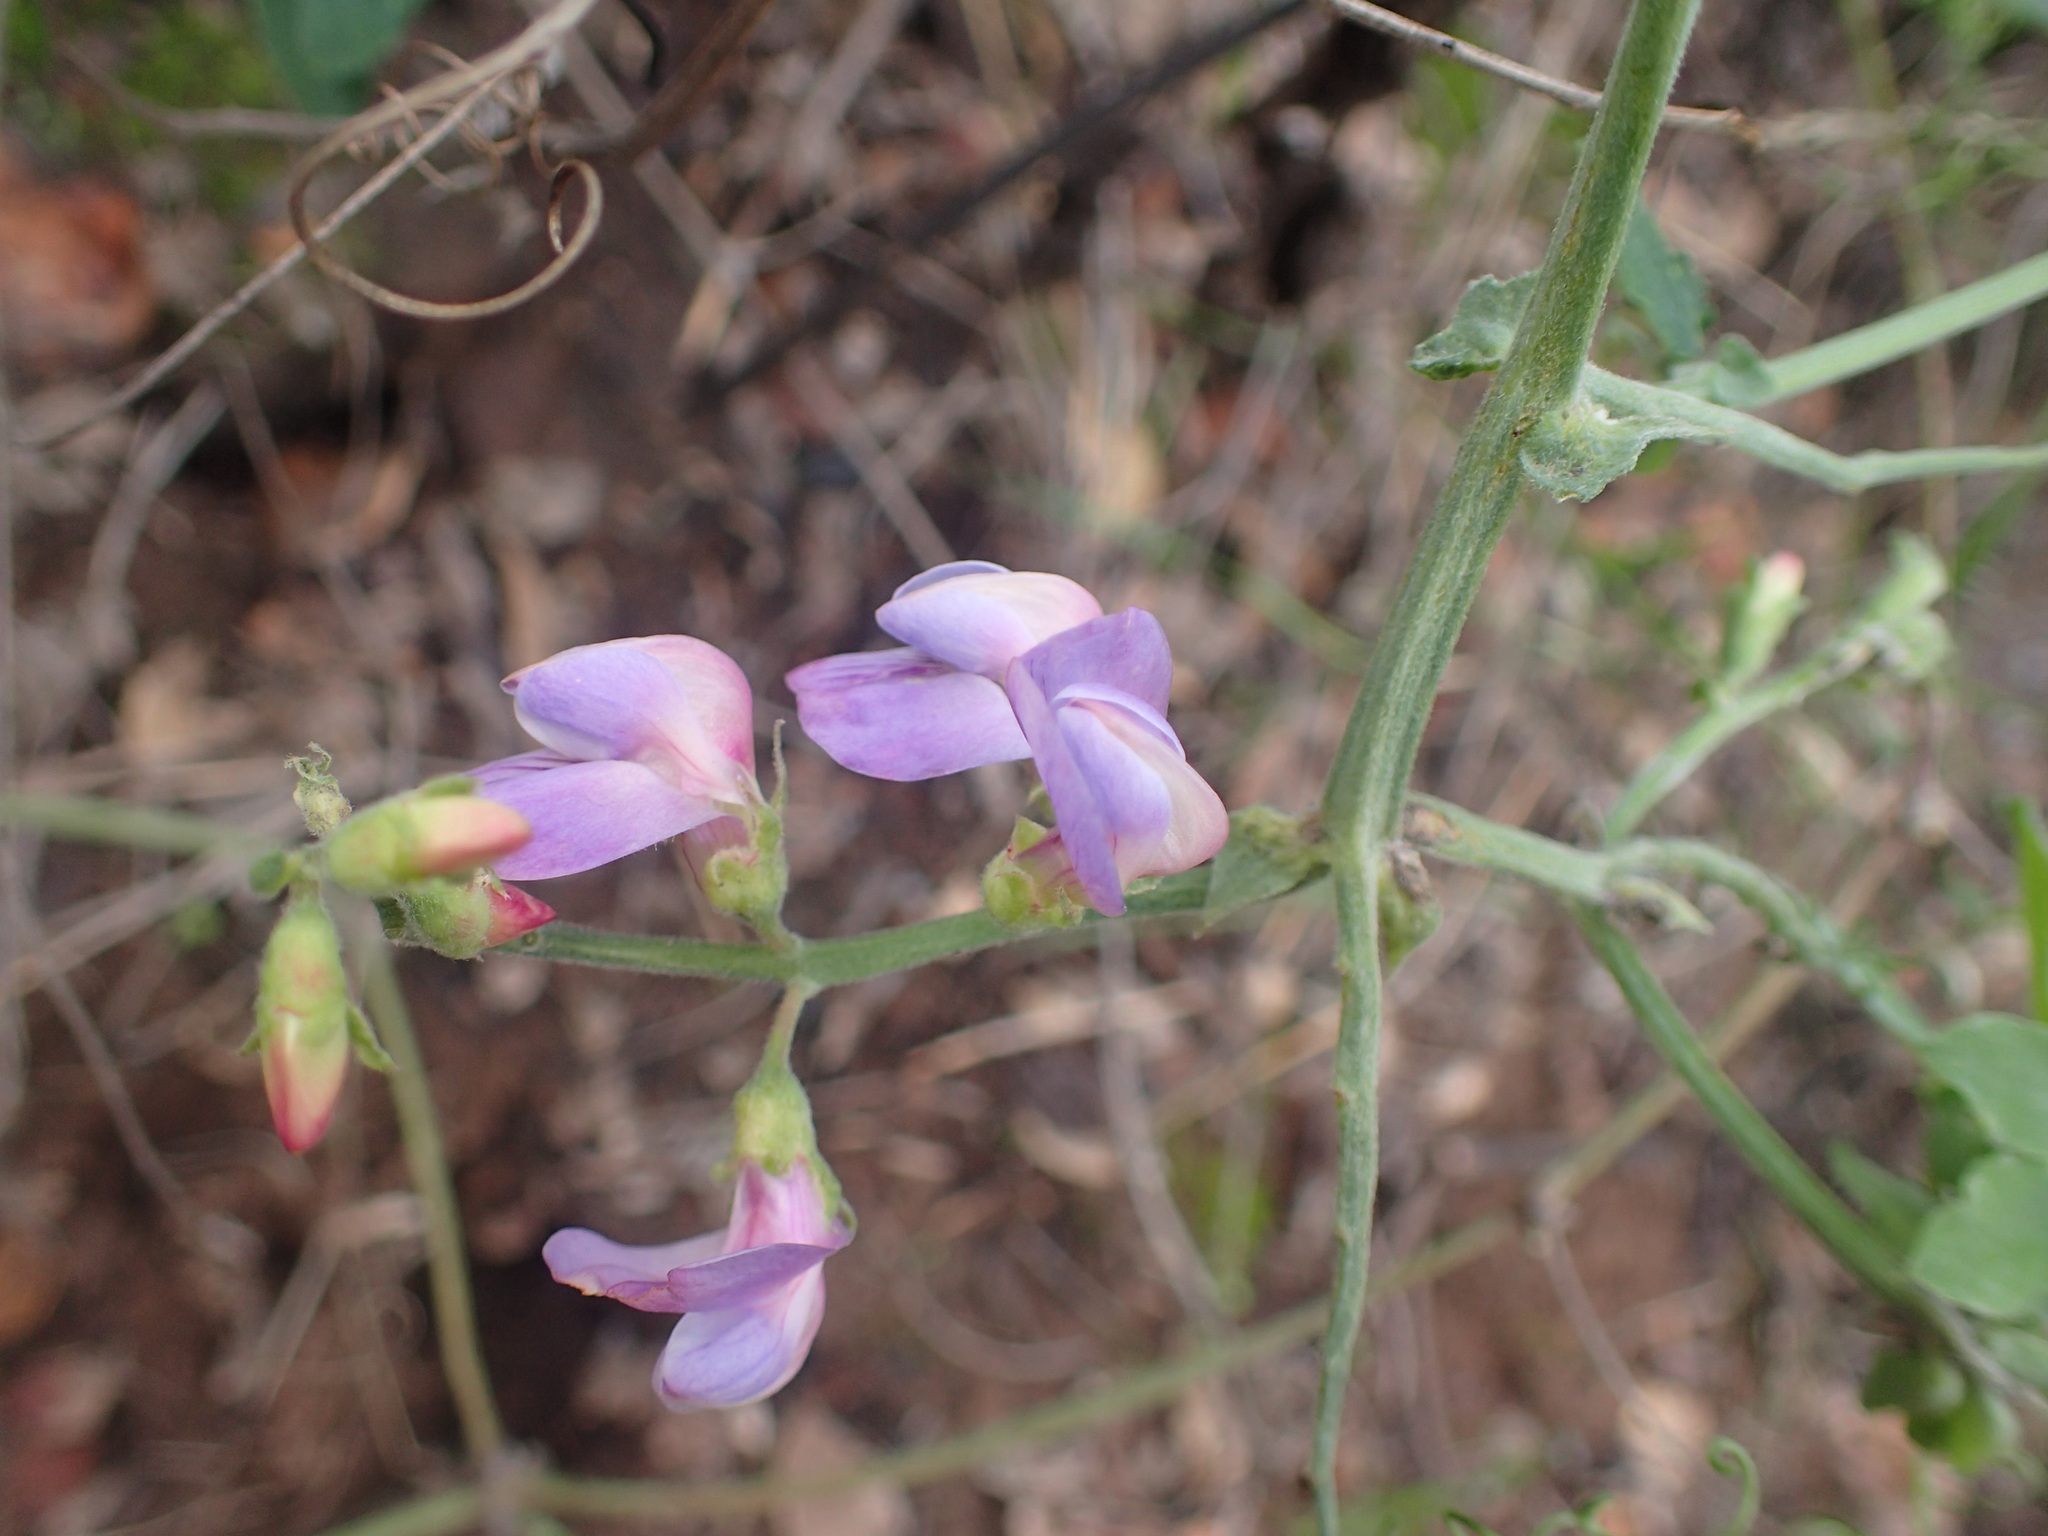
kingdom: Plantae
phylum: Tracheophyta
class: Magnoliopsida
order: Fabales
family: Fabaceae
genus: Lathyrus
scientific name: Lathyrus vestitus
